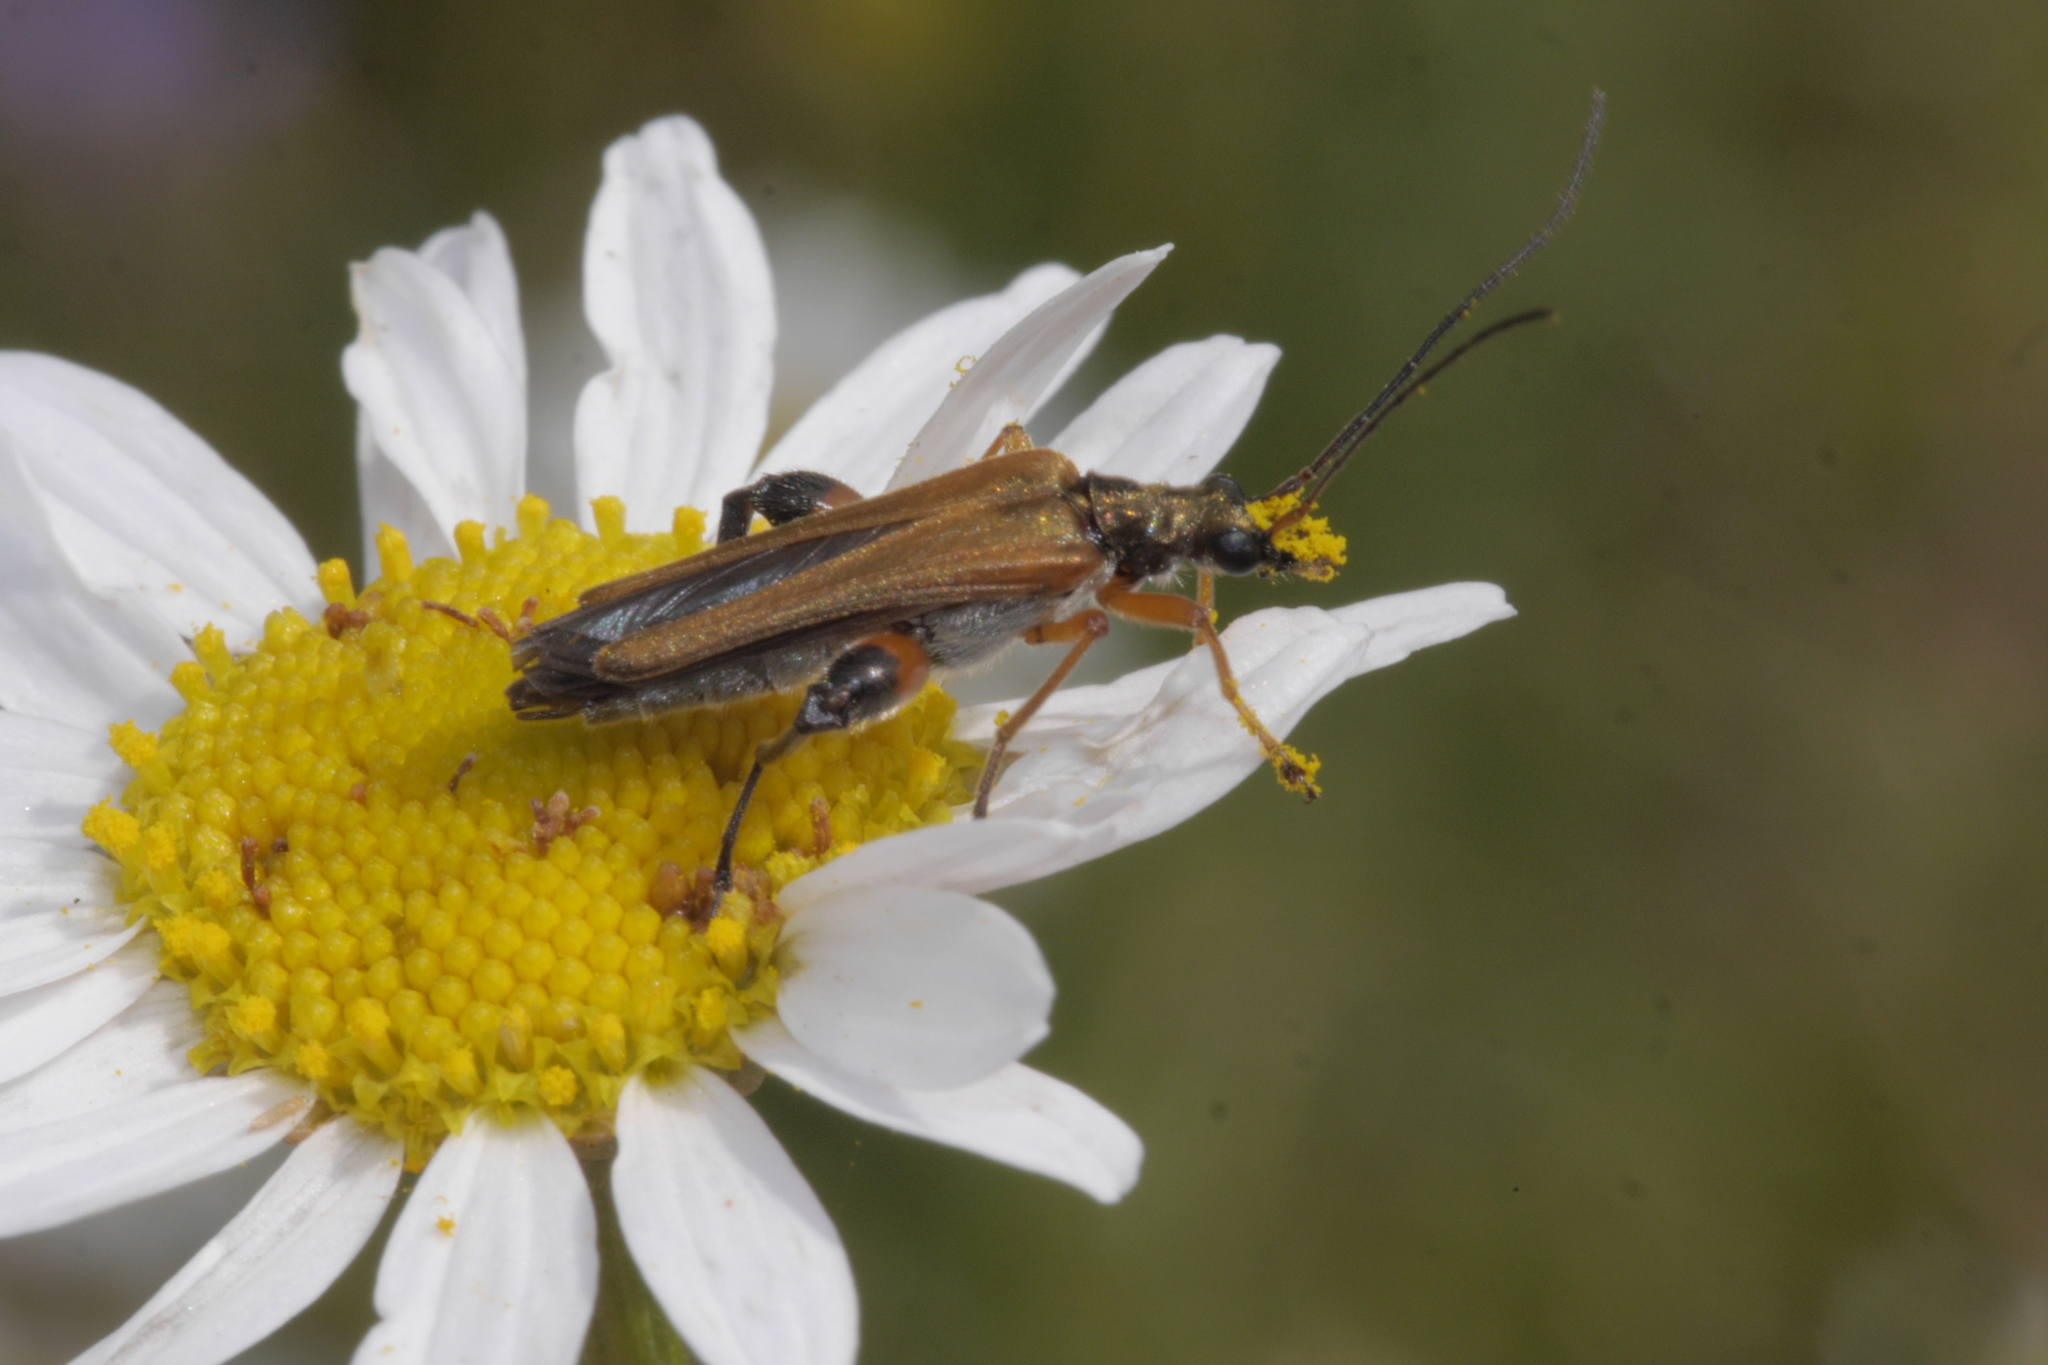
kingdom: Animalia
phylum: Arthropoda
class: Insecta
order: Coleoptera
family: Oedemeridae
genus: Oedemera
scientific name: Oedemera podagrariae
